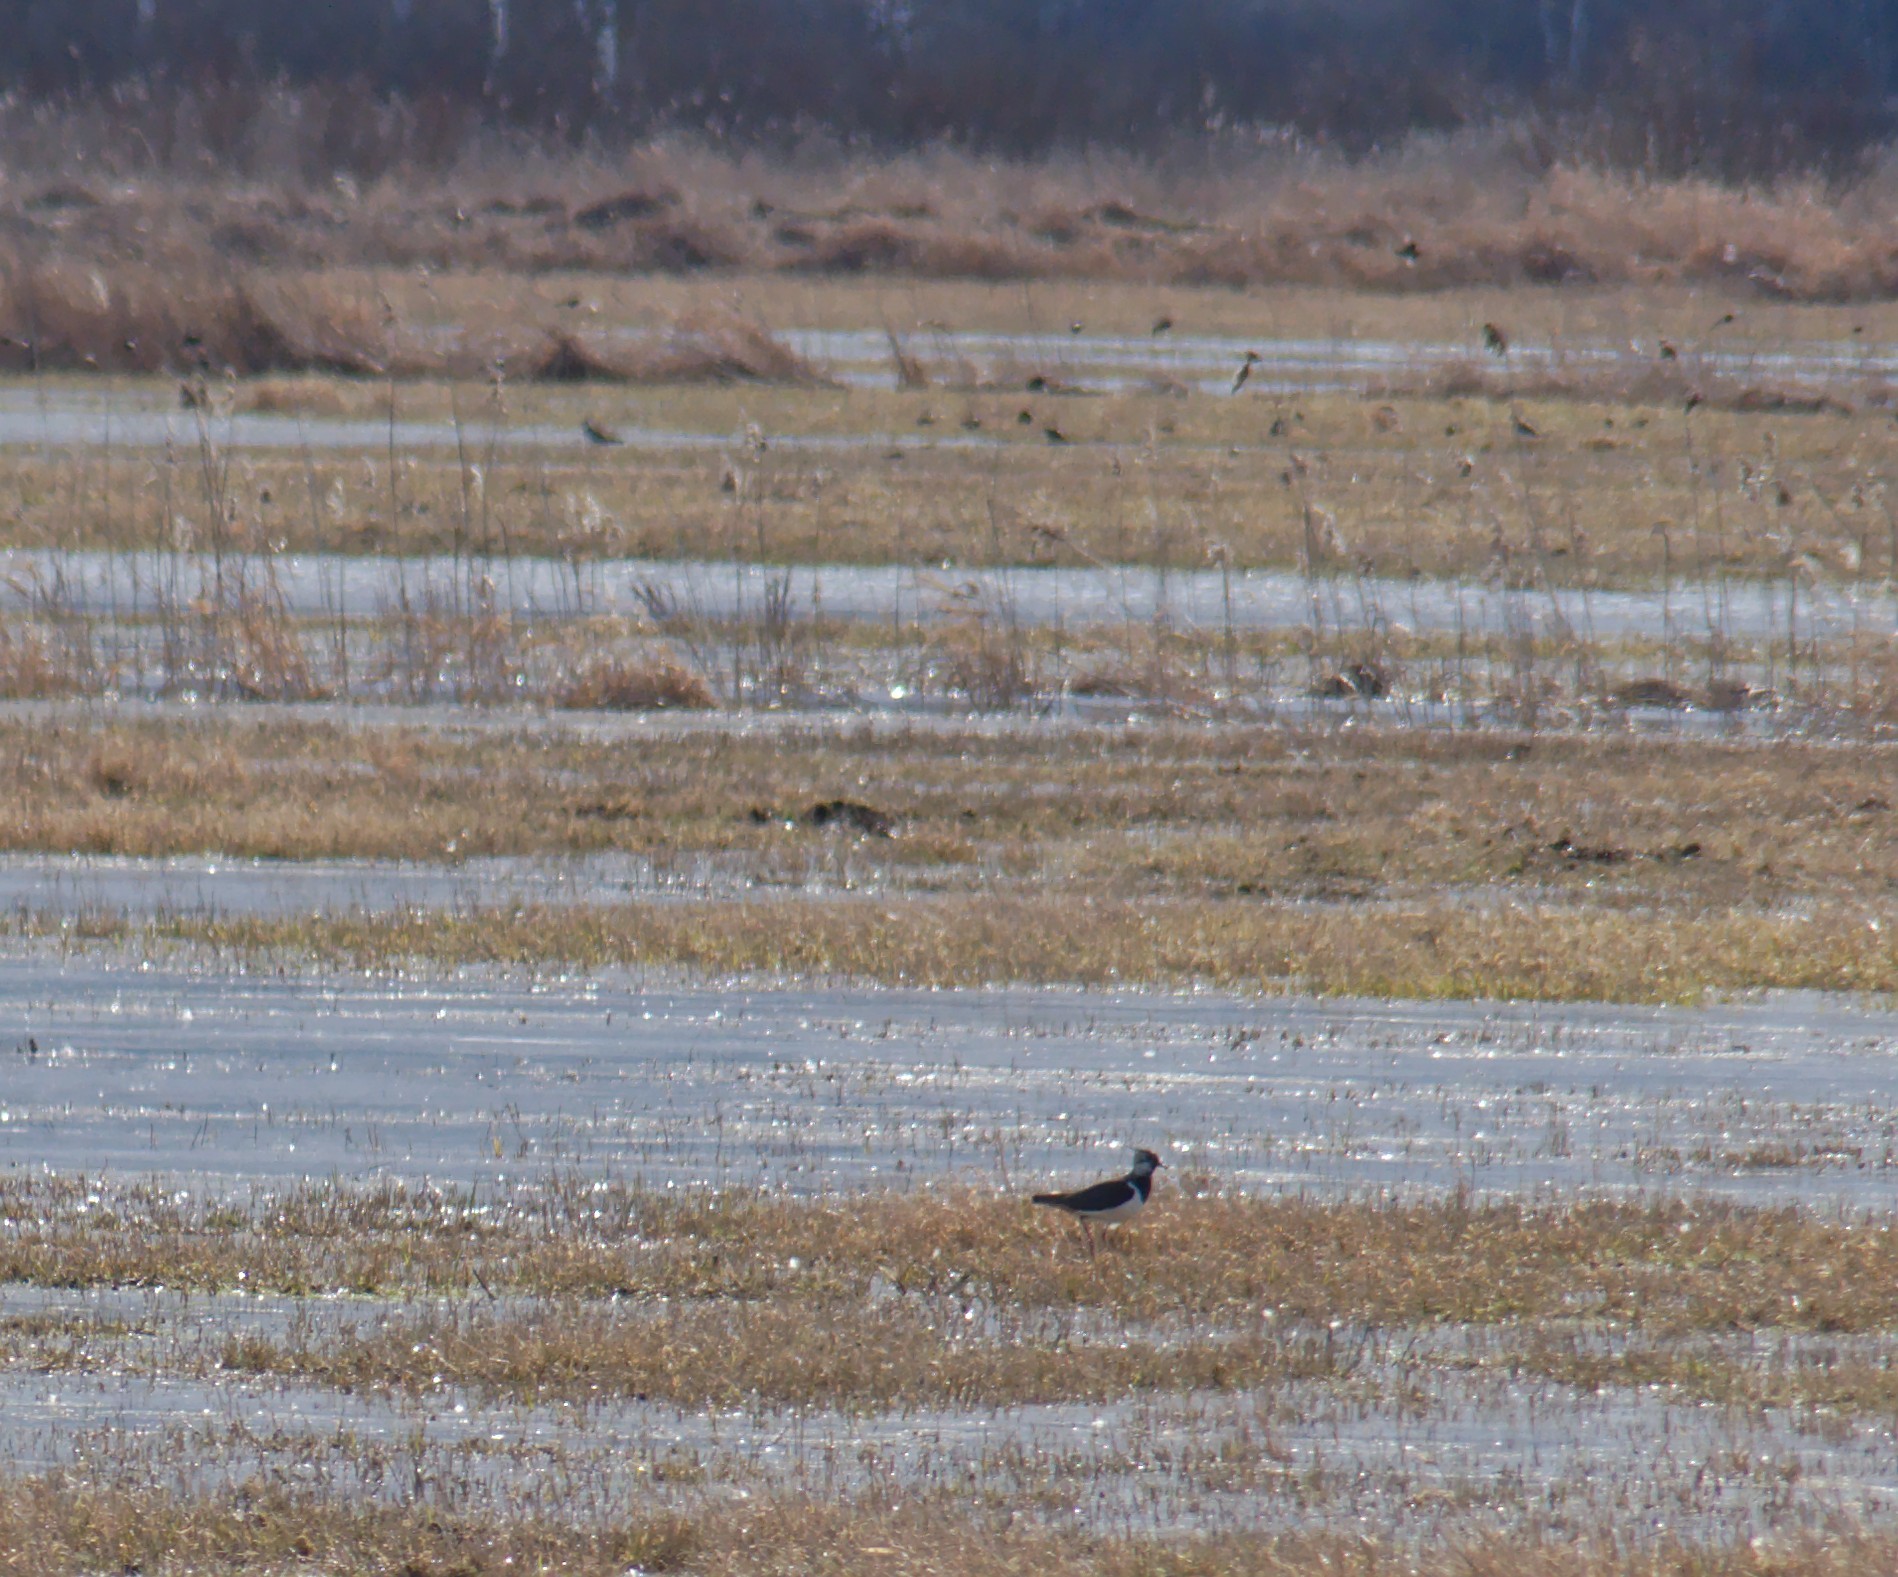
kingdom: Animalia
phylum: Chordata
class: Aves
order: Charadriiformes
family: Charadriidae
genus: Vanellus
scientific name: Vanellus vanellus
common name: Northern lapwing
